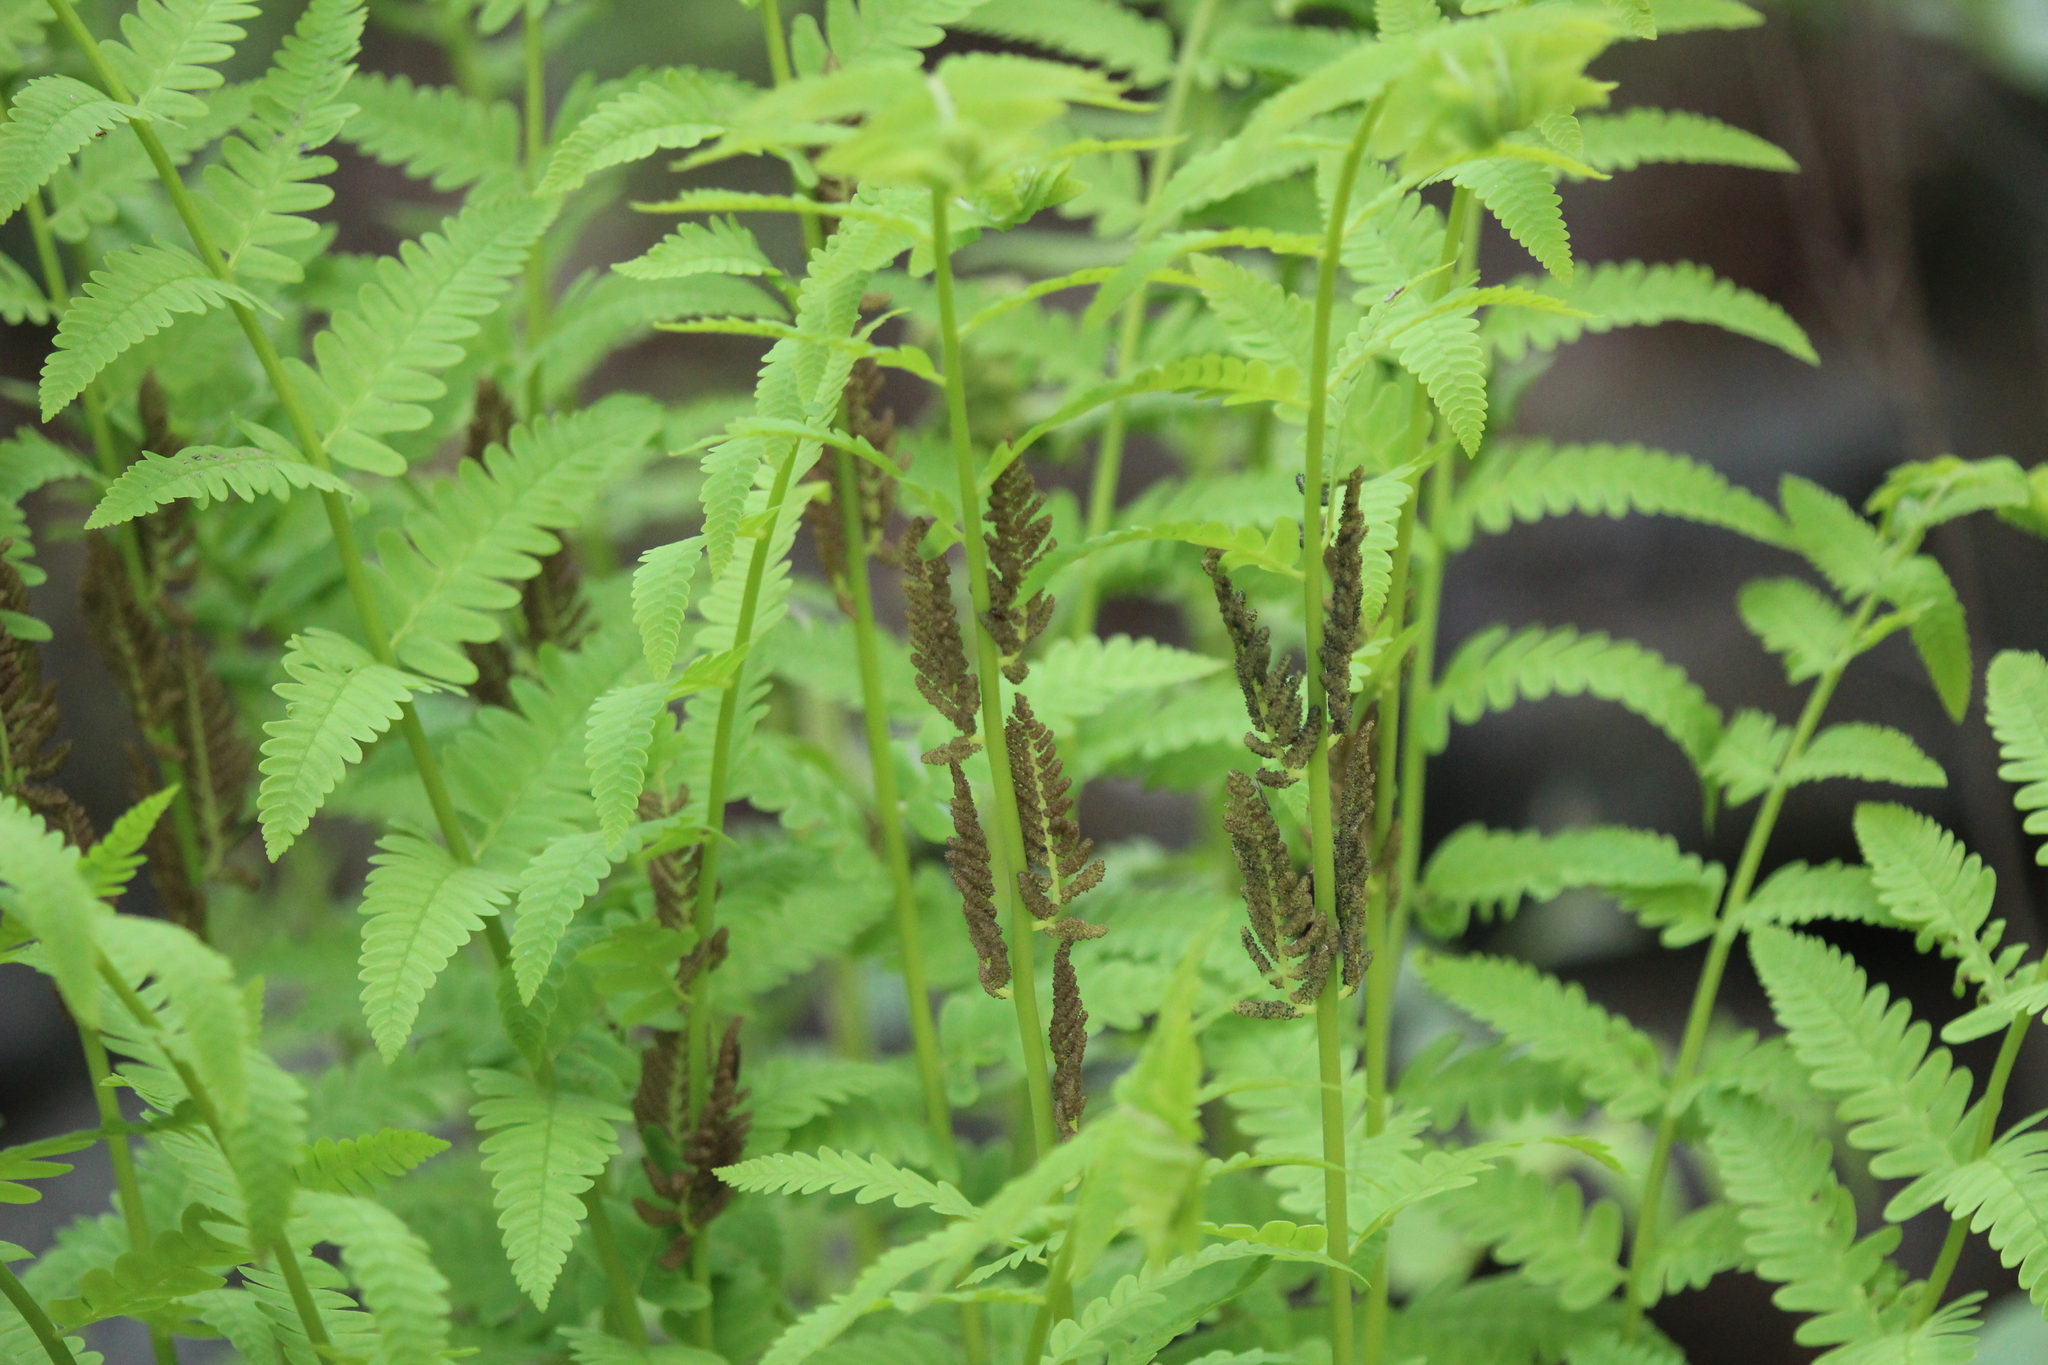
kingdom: Plantae
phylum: Tracheophyta
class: Polypodiopsida
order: Osmundales
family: Osmundaceae
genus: Claytosmunda
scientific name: Claytosmunda claytoniana
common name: Clayton's fern
